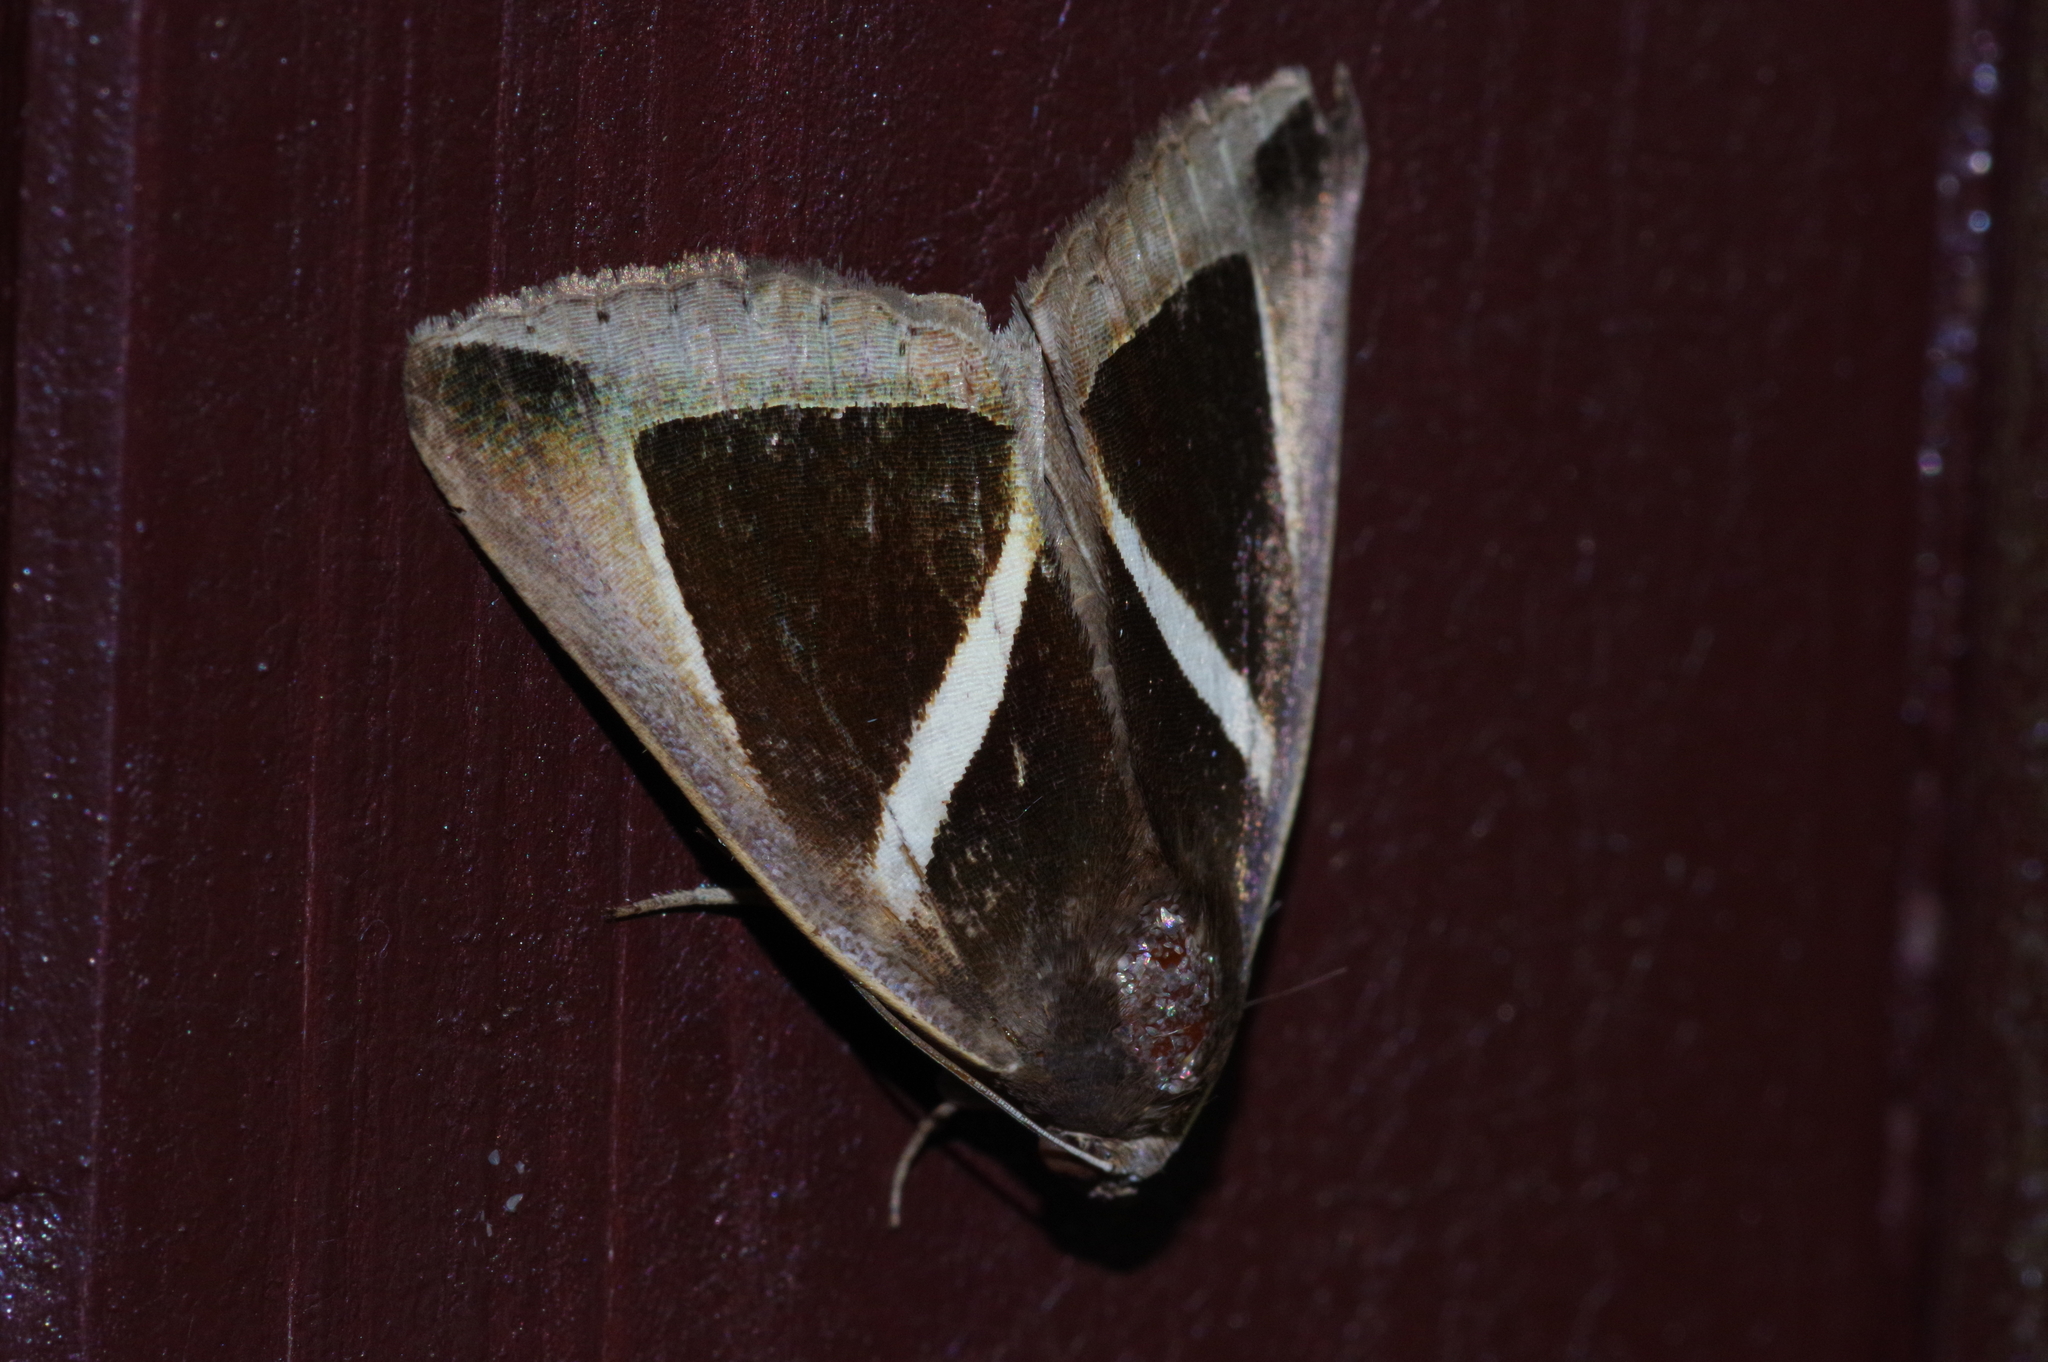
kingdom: Animalia
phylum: Arthropoda
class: Insecta
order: Lepidoptera
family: Erebidae
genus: Chalciope
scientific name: Chalciope mygdon
